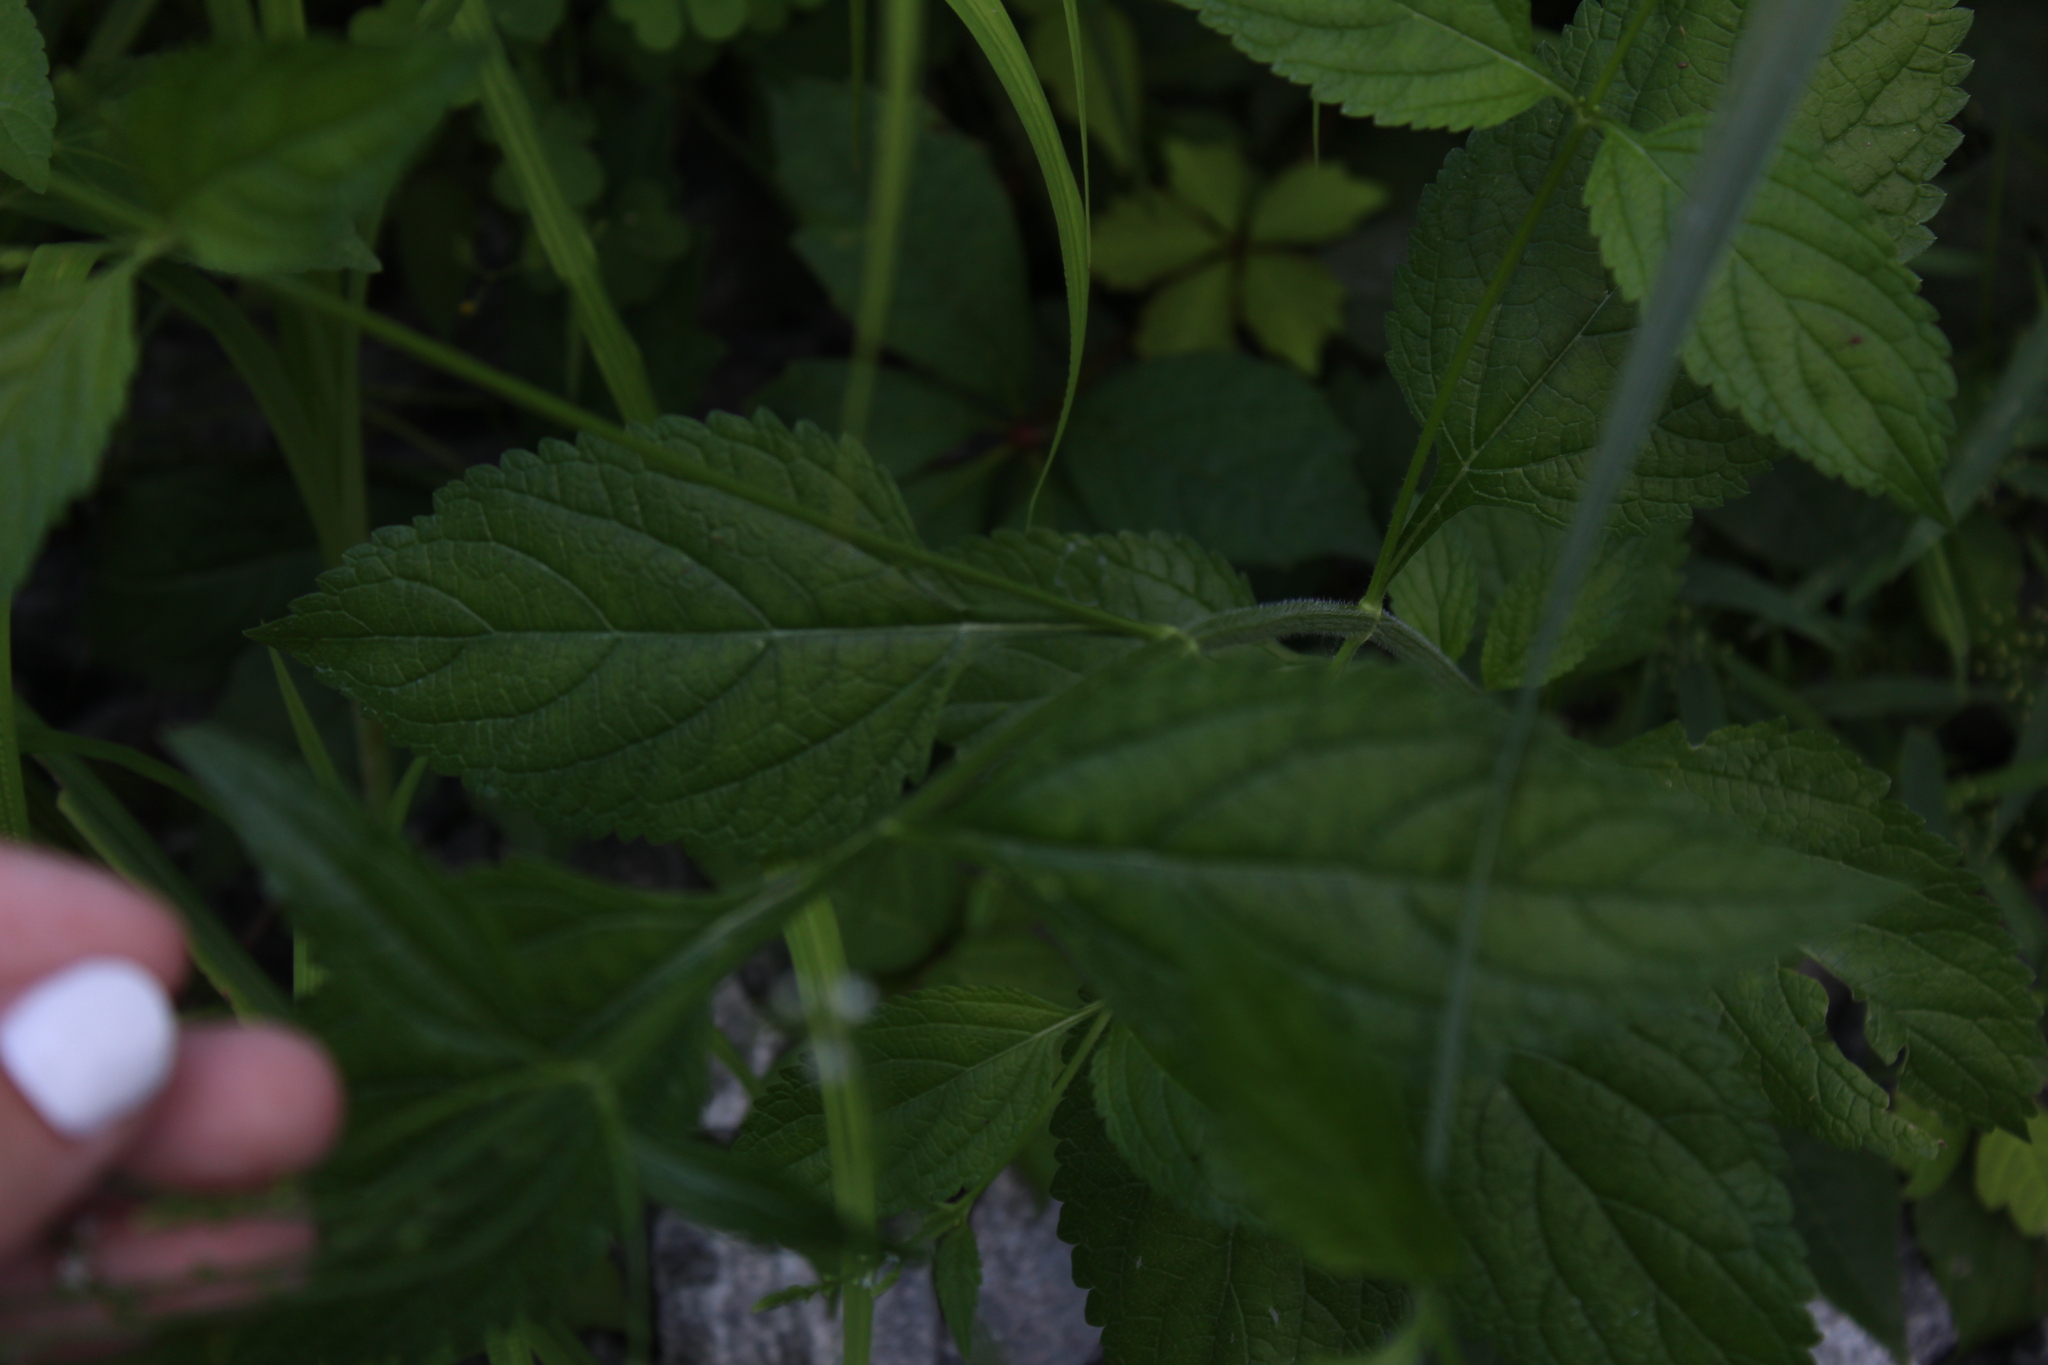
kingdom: Plantae
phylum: Tracheophyta
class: Magnoliopsida
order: Lamiales
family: Verbenaceae
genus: Verbena
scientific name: Verbena urticifolia
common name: Nettle-leaved vervain
